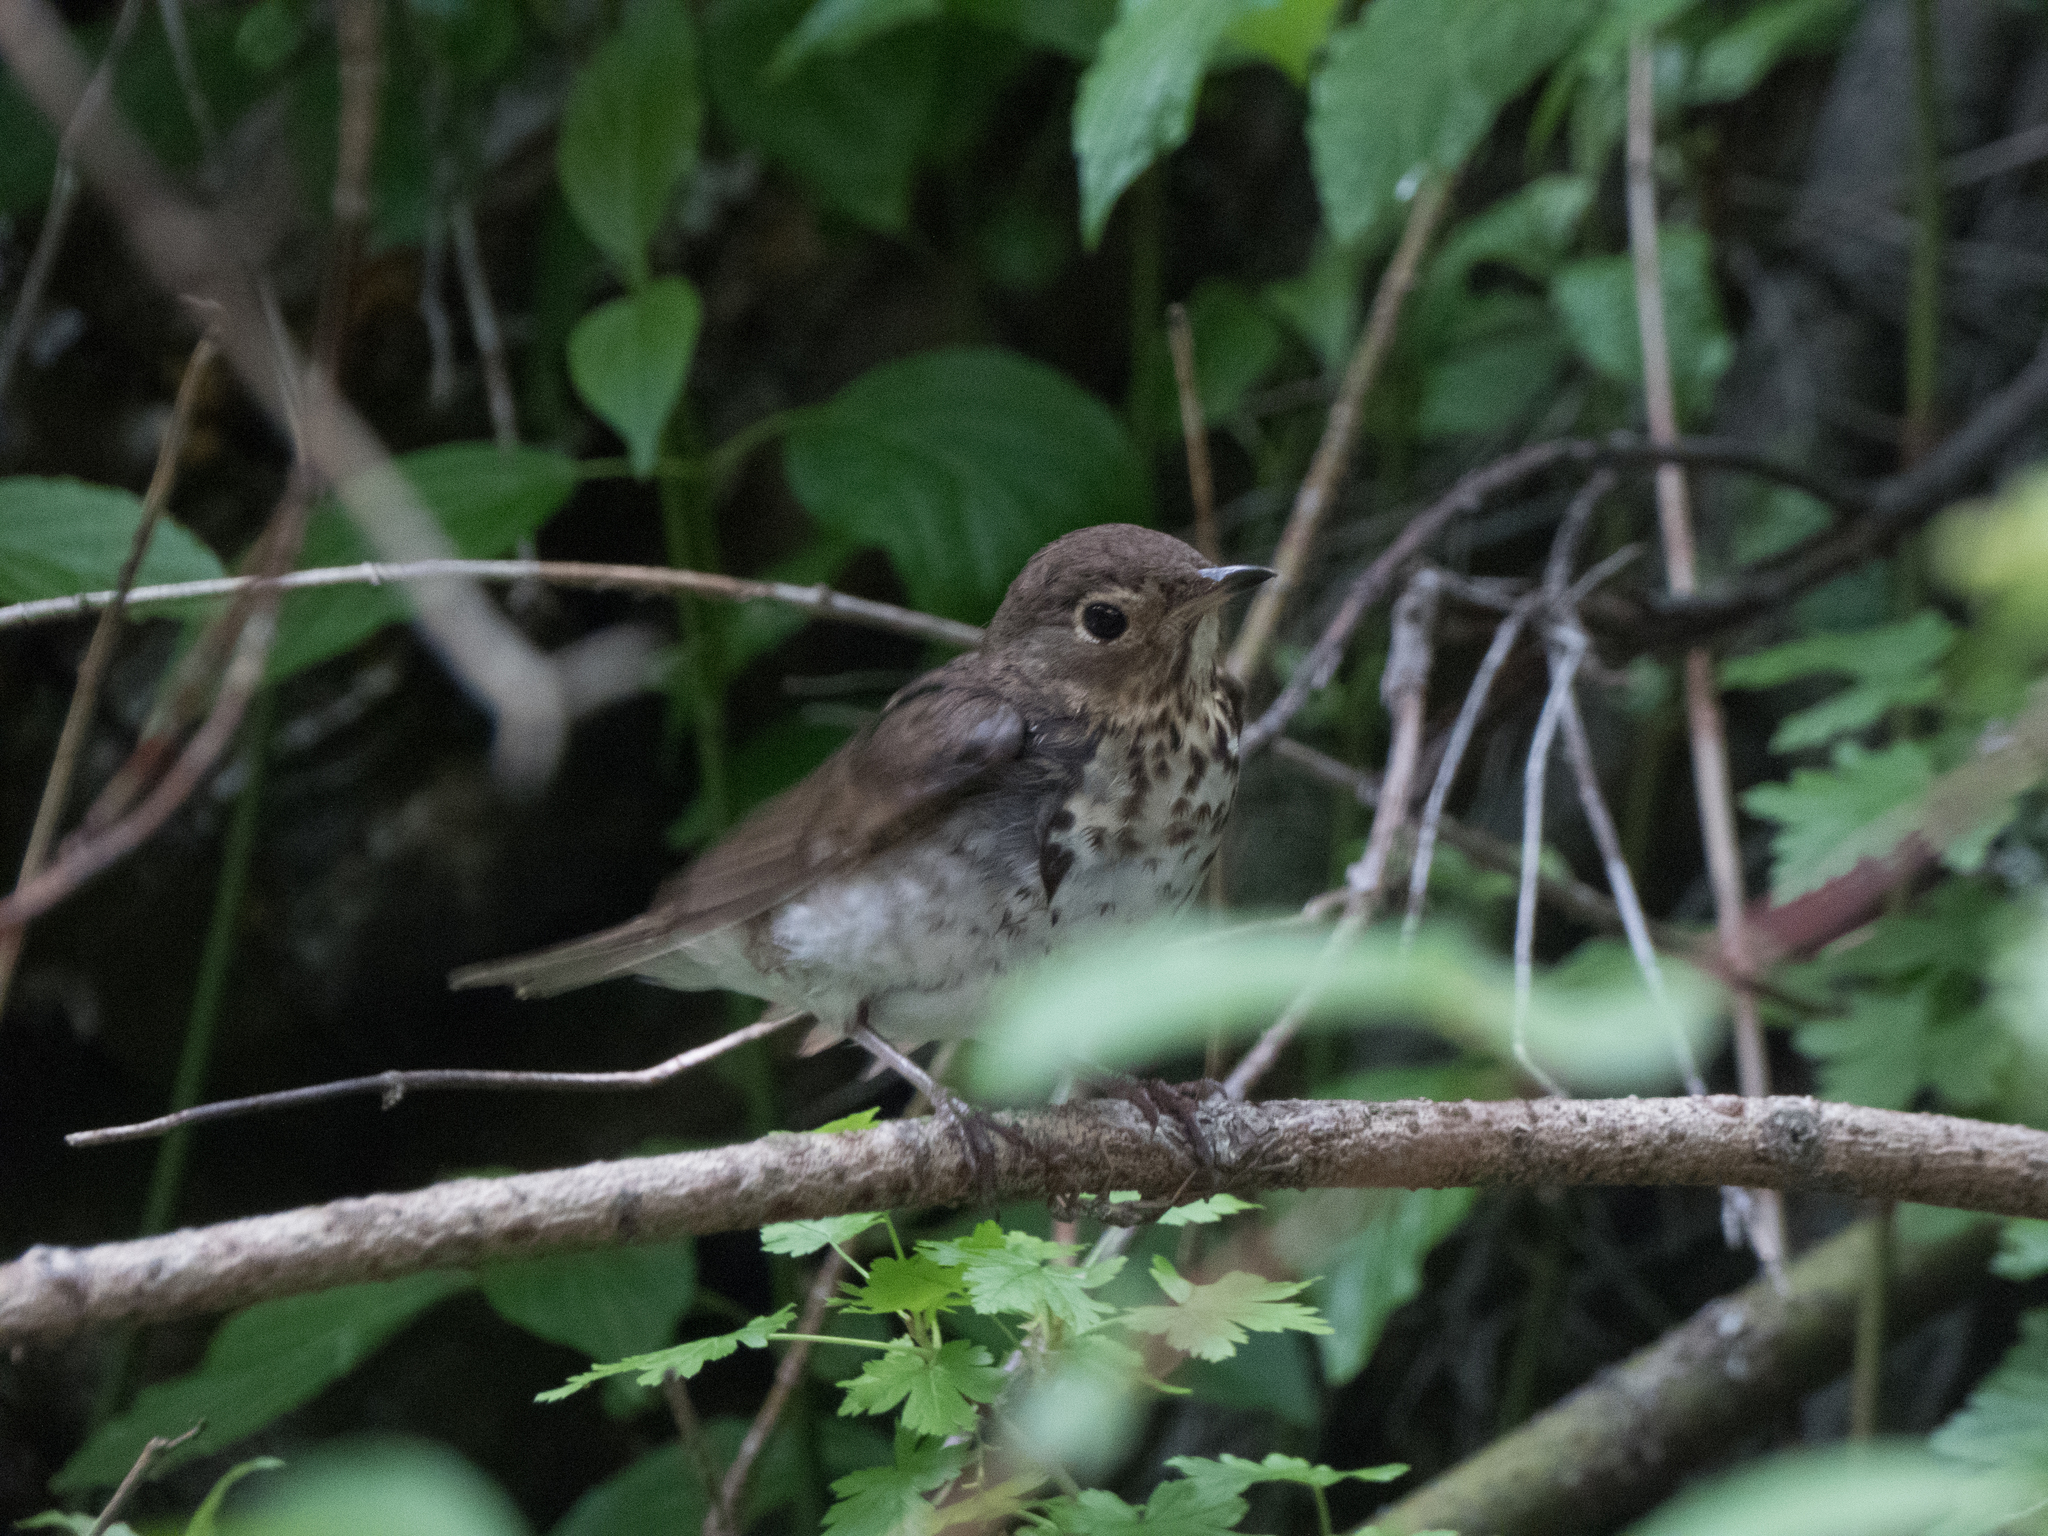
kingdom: Animalia
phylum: Chordata
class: Aves
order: Passeriformes
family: Turdidae
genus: Catharus
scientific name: Catharus ustulatus
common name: Swainson's thrush
